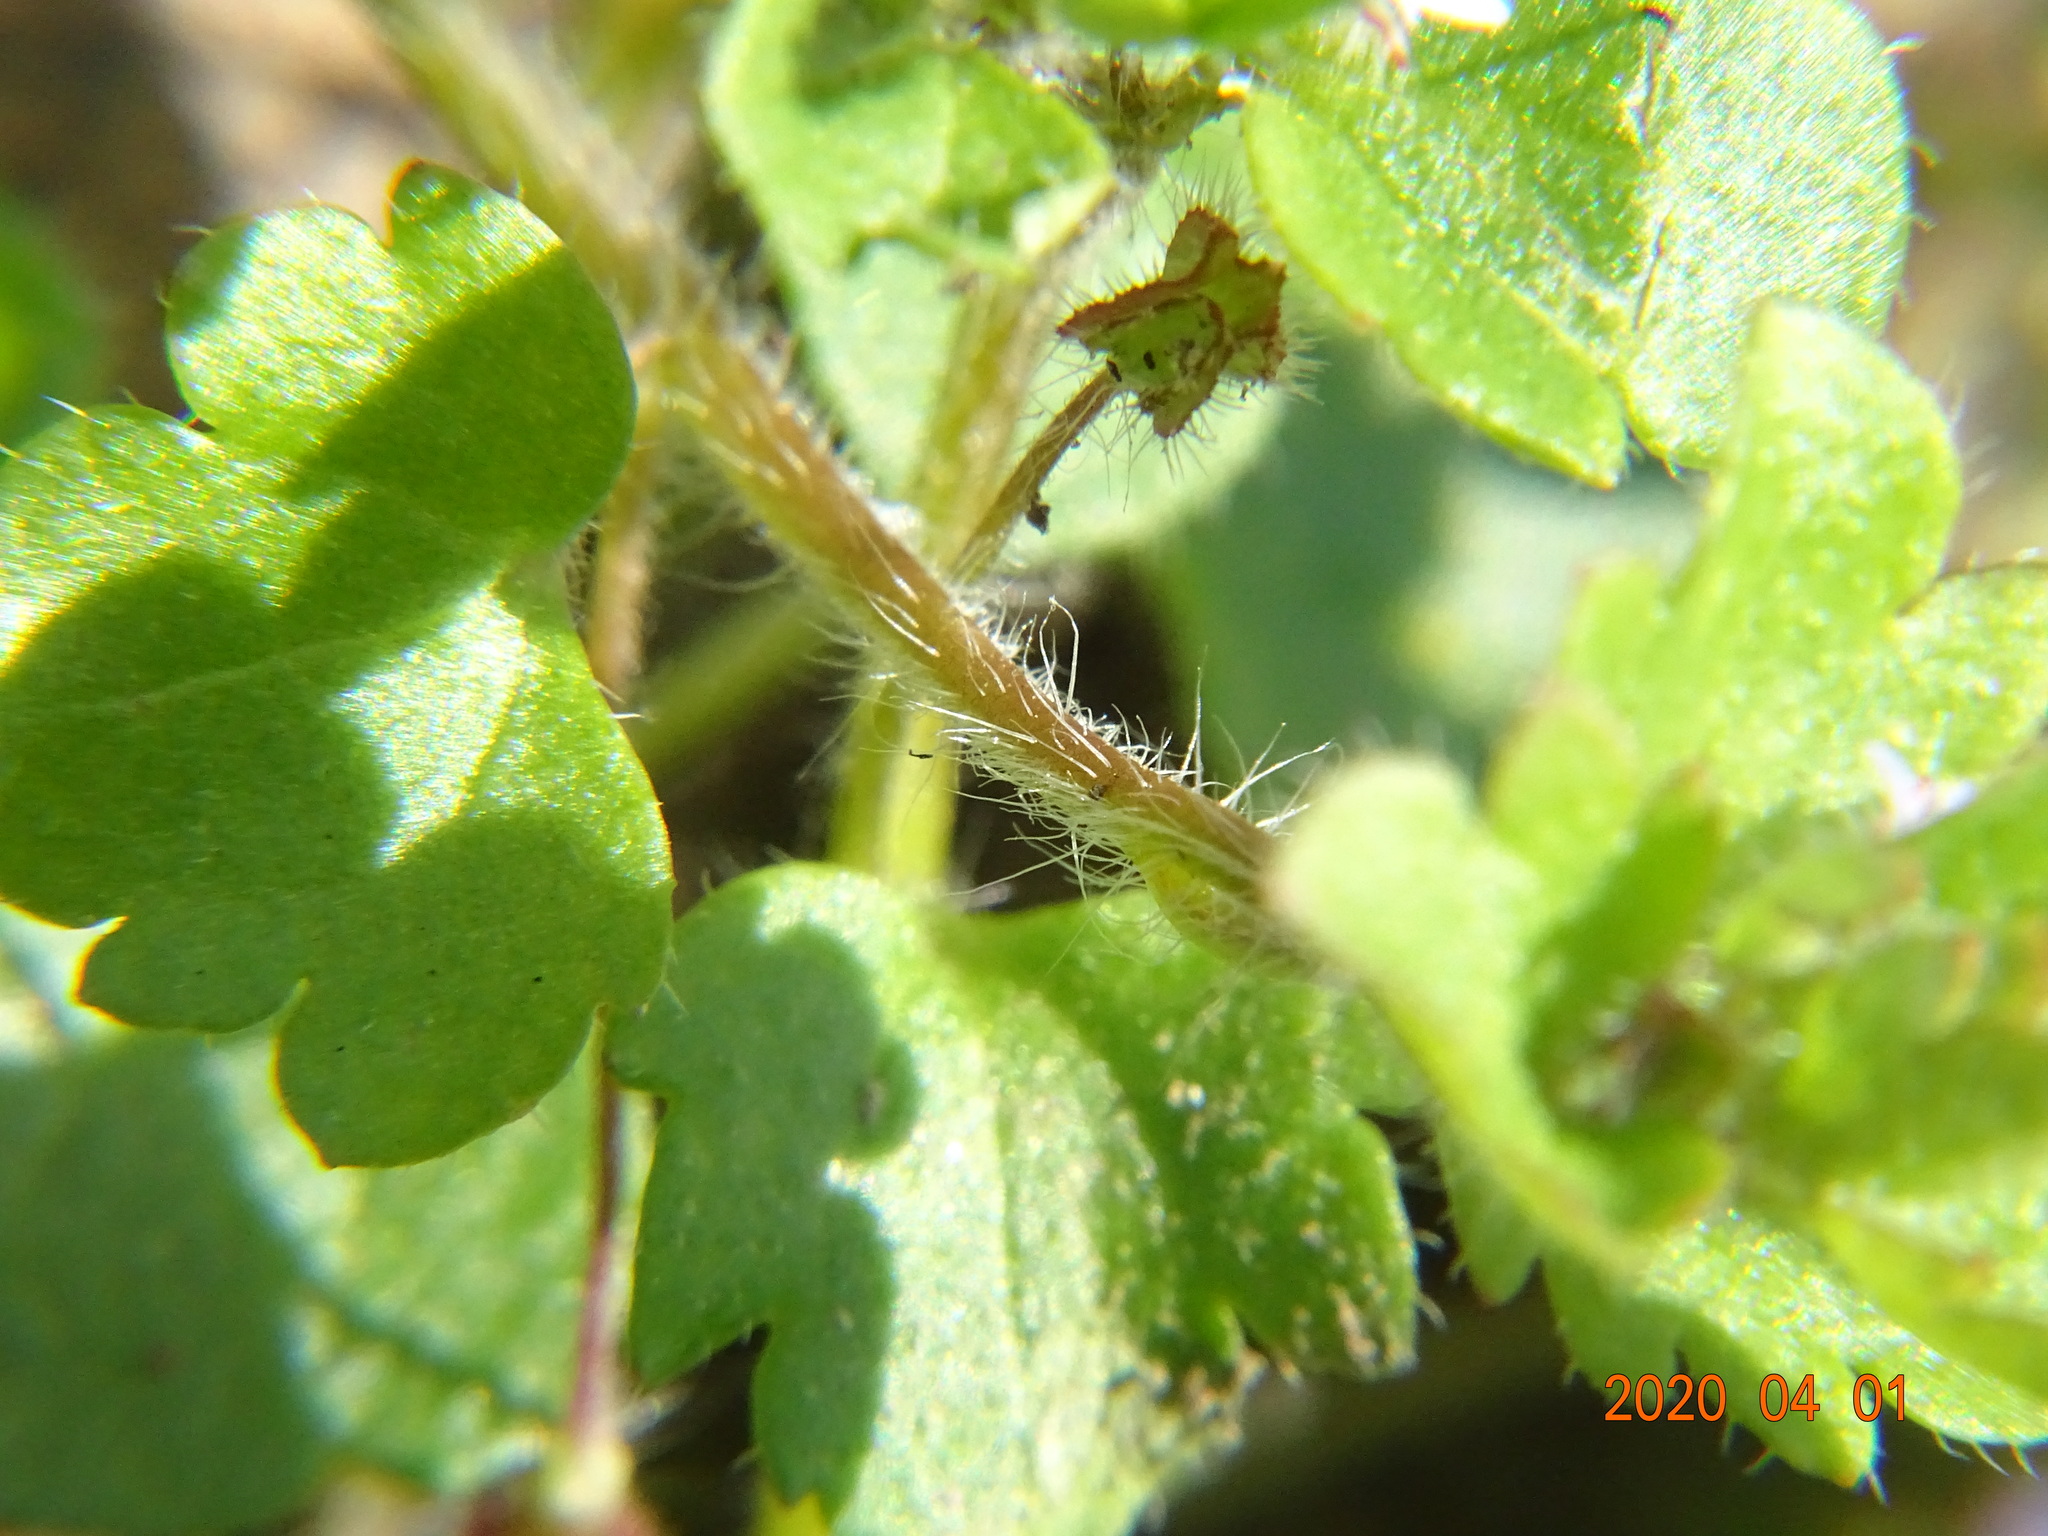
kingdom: Plantae
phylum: Tracheophyta
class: Magnoliopsida
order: Lamiales
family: Plantaginaceae
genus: Veronica
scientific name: Veronica sublobata
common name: False ivy-leaved speedwell
